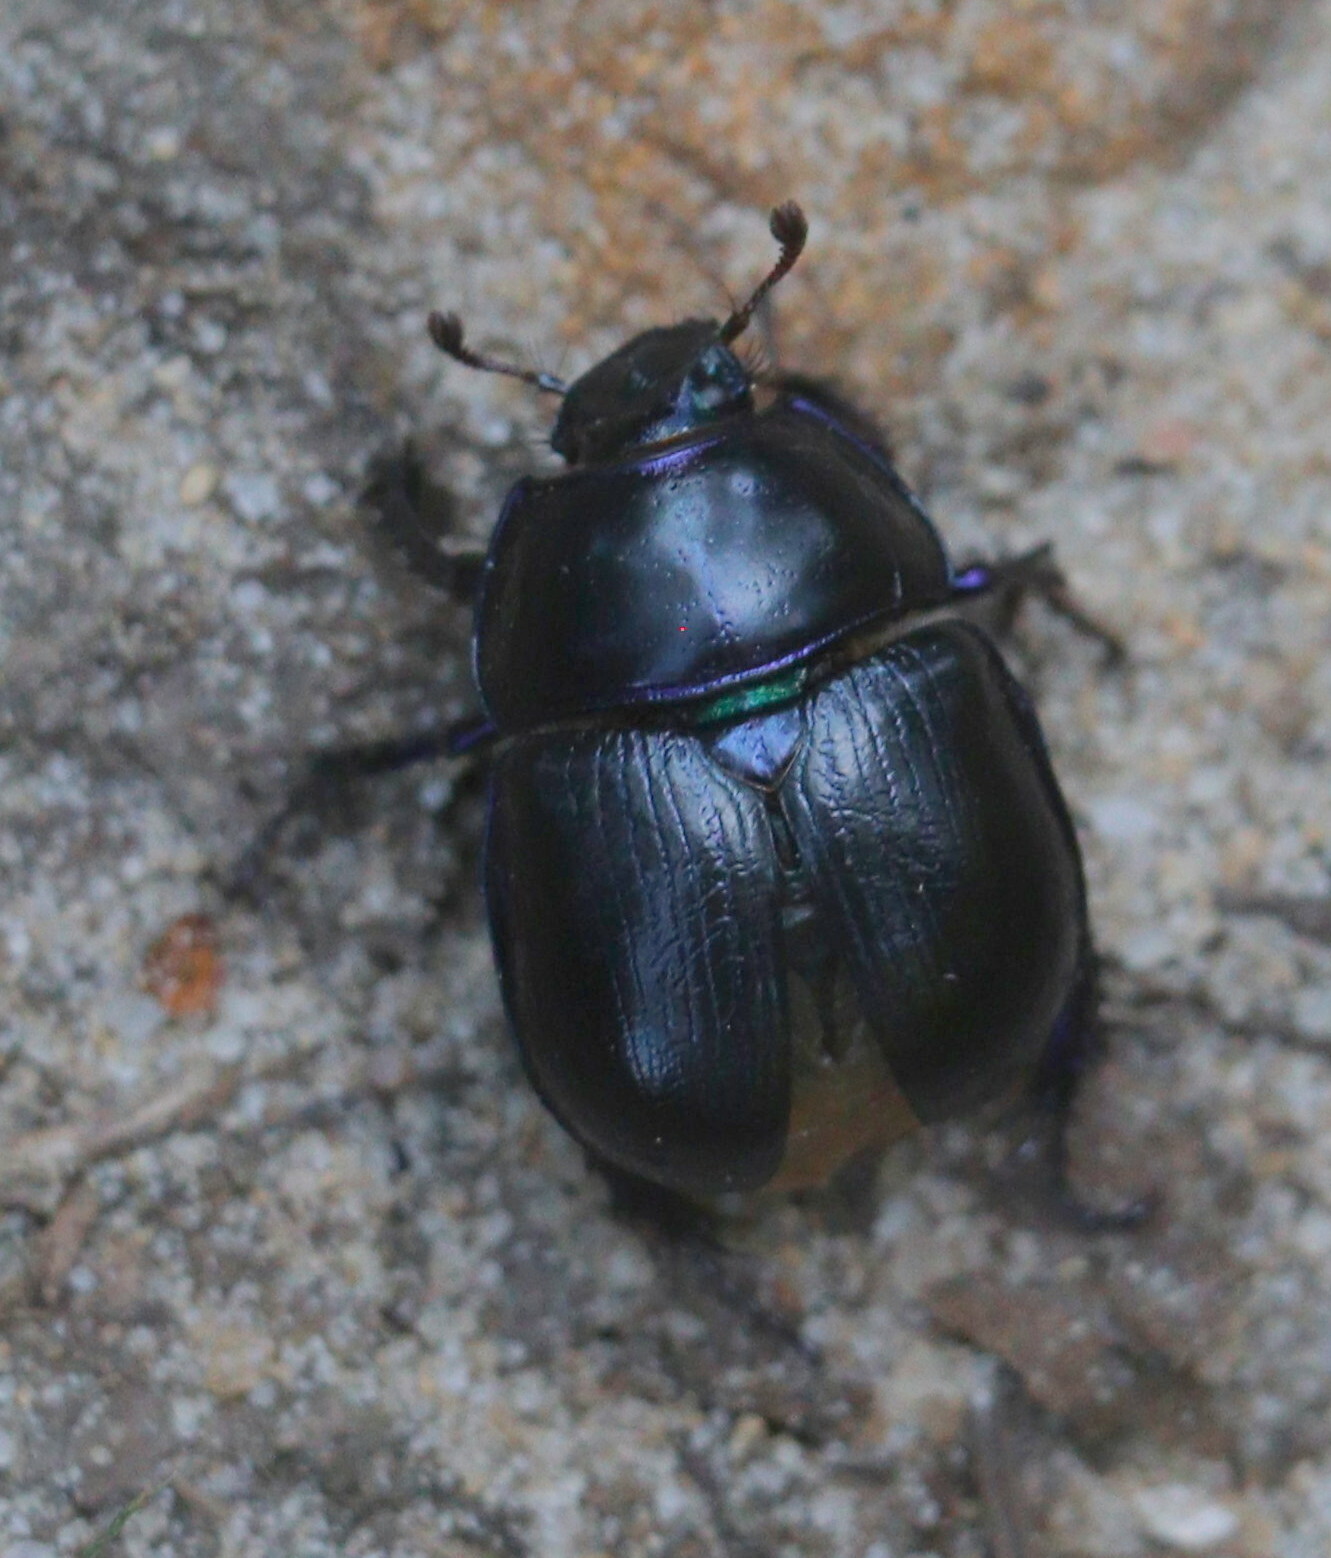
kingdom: Animalia
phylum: Arthropoda
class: Insecta
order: Coleoptera
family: Geotrupidae
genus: Anoplotrupes
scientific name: Anoplotrupes stercorosus
